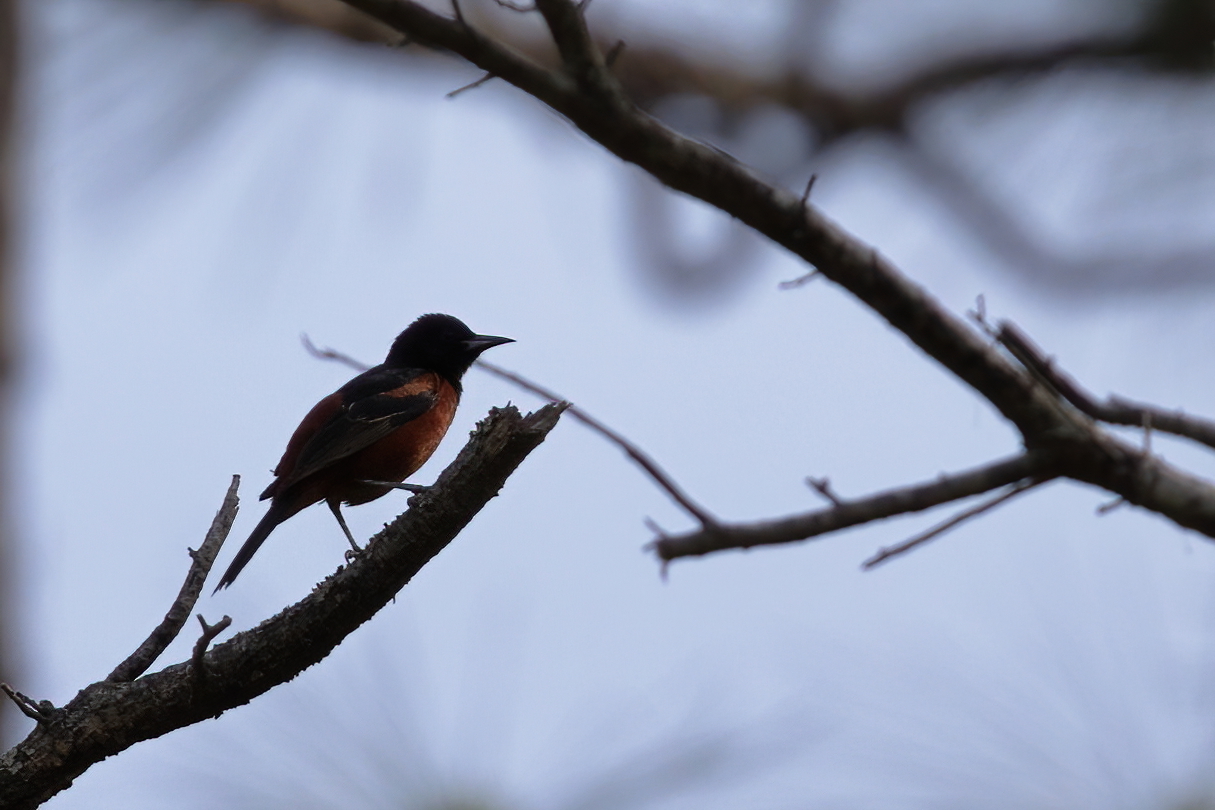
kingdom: Animalia
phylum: Chordata
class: Aves
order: Passeriformes
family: Icteridae
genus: Icterus
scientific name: Icterus spurius
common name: Orchard oriole
